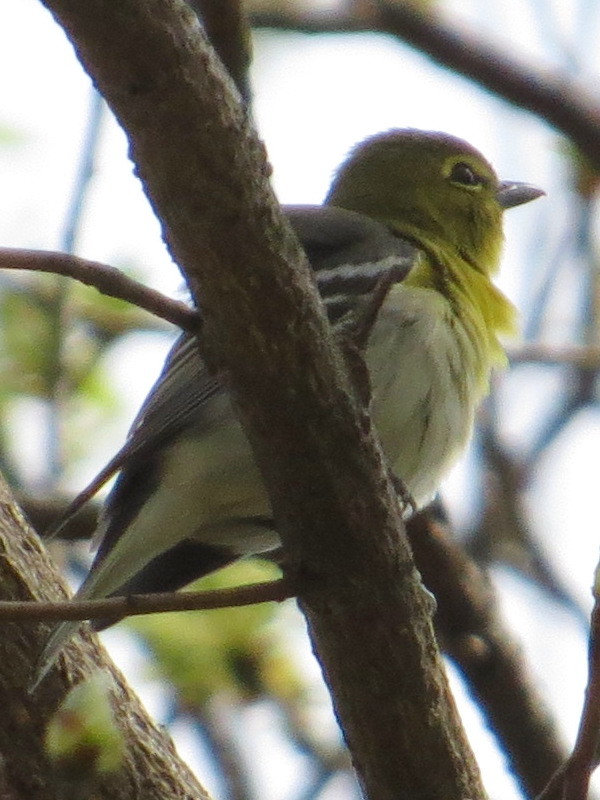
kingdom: Animalia
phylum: Chordata
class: Aves
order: Passeriformes
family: Vireonidae
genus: Vireo
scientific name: Vireo flavifrons
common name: Yellow-throated vireo
